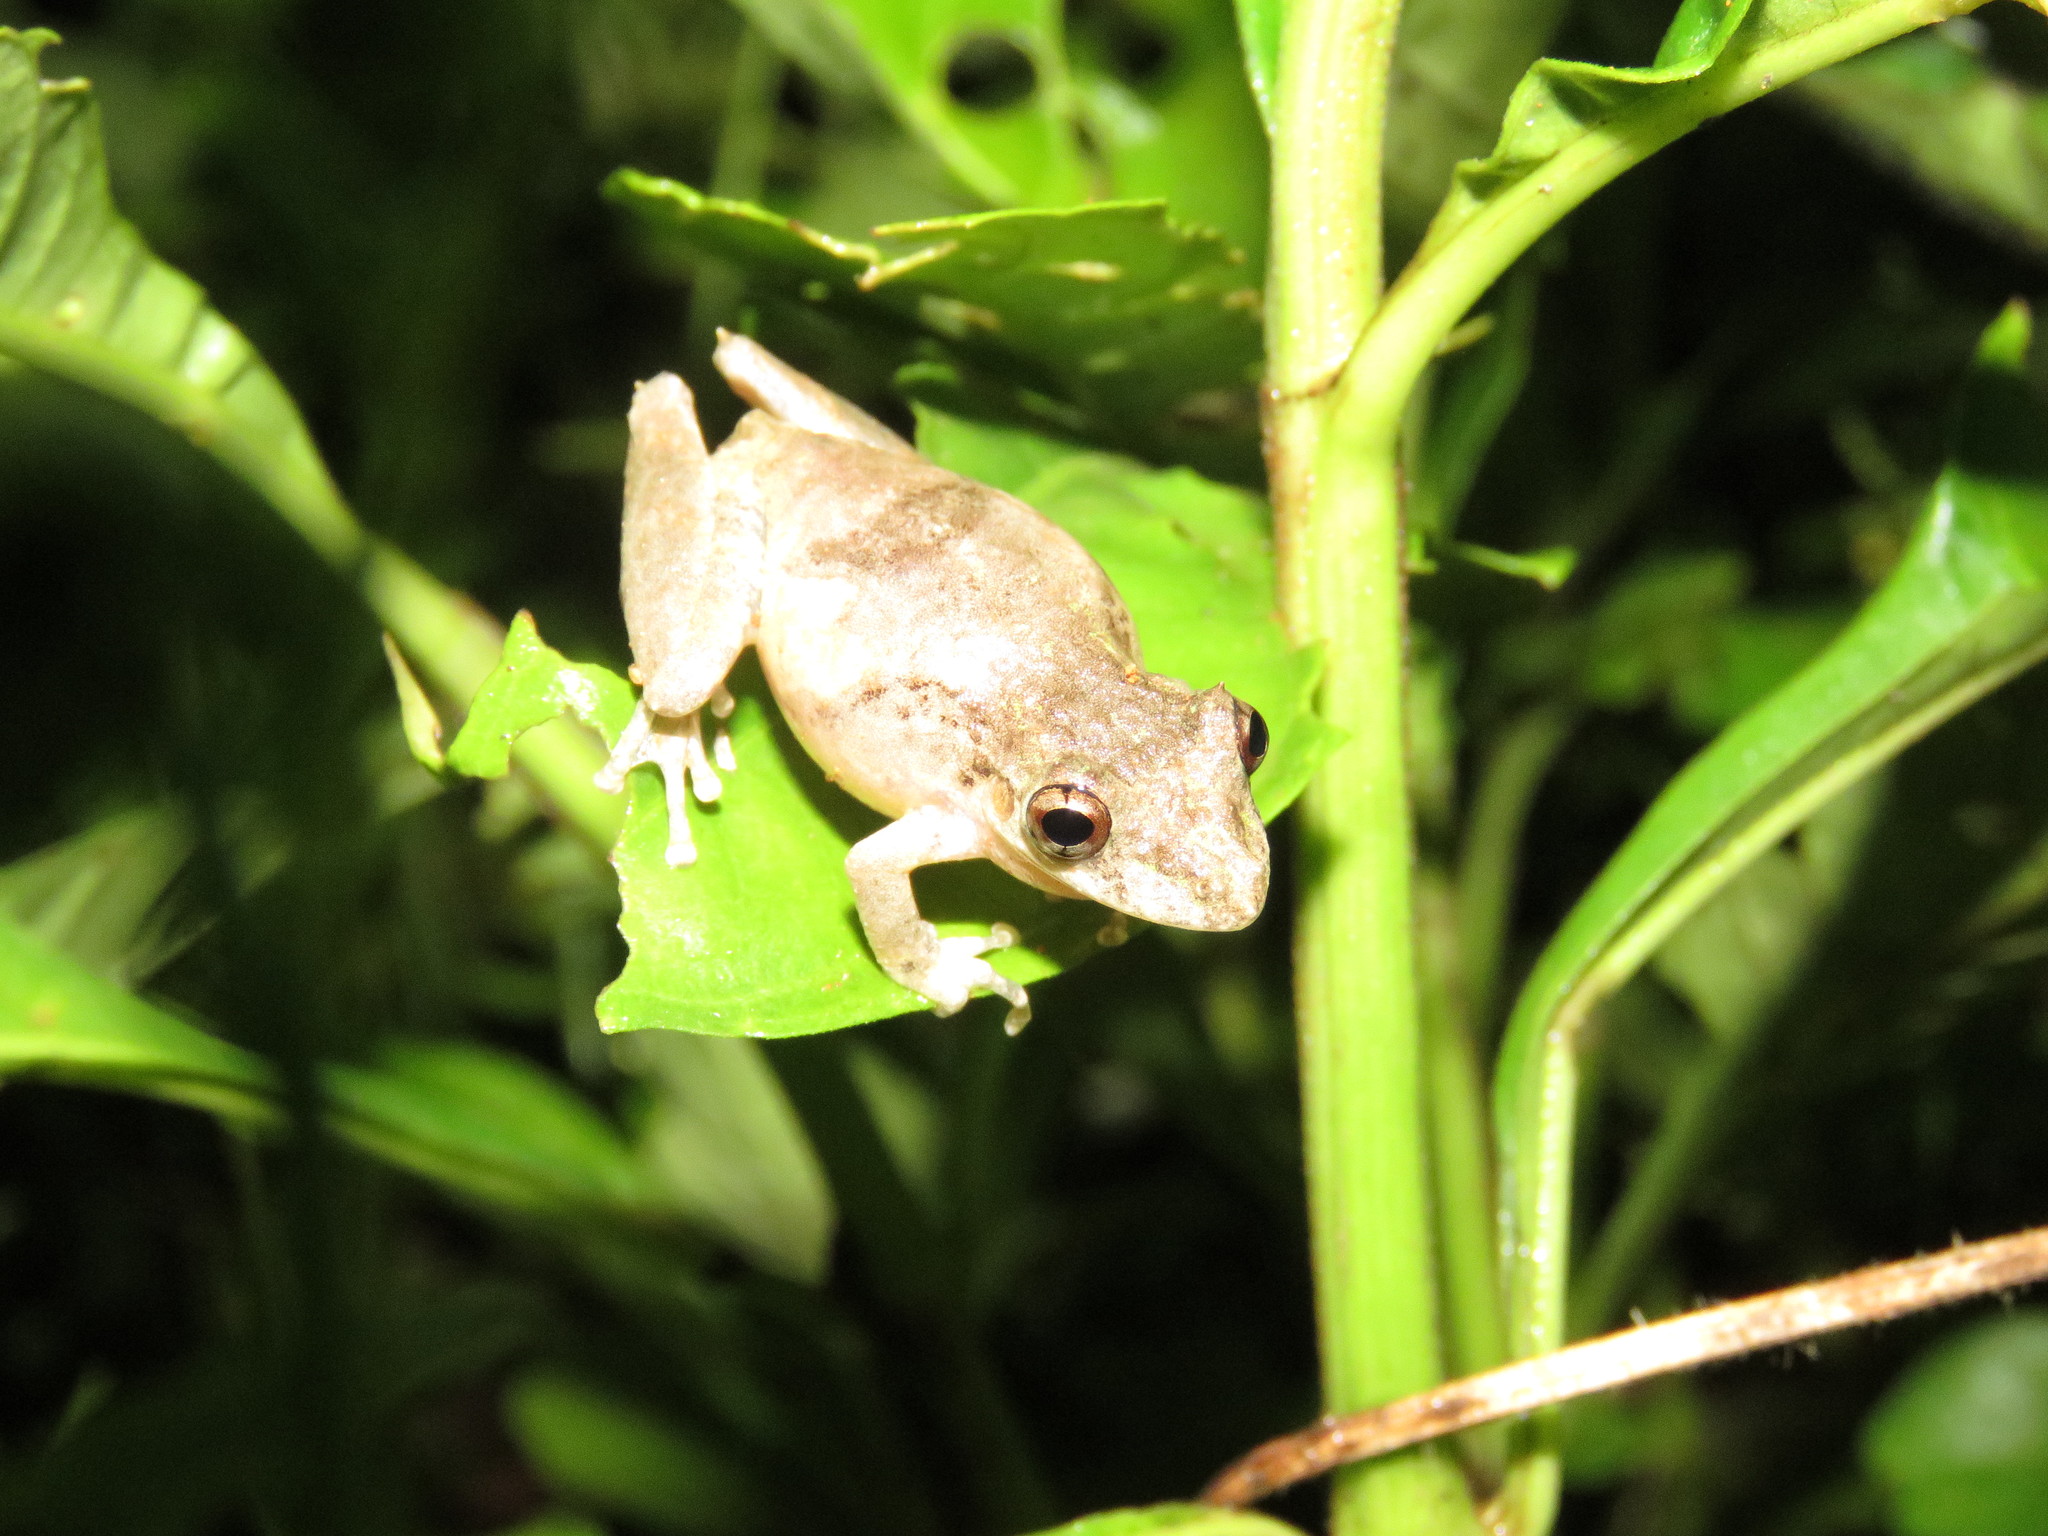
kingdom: Animalia
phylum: Chordata
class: Amphibia
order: Anura
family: Hylidae
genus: Scinax
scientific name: Scinax nebulosus
